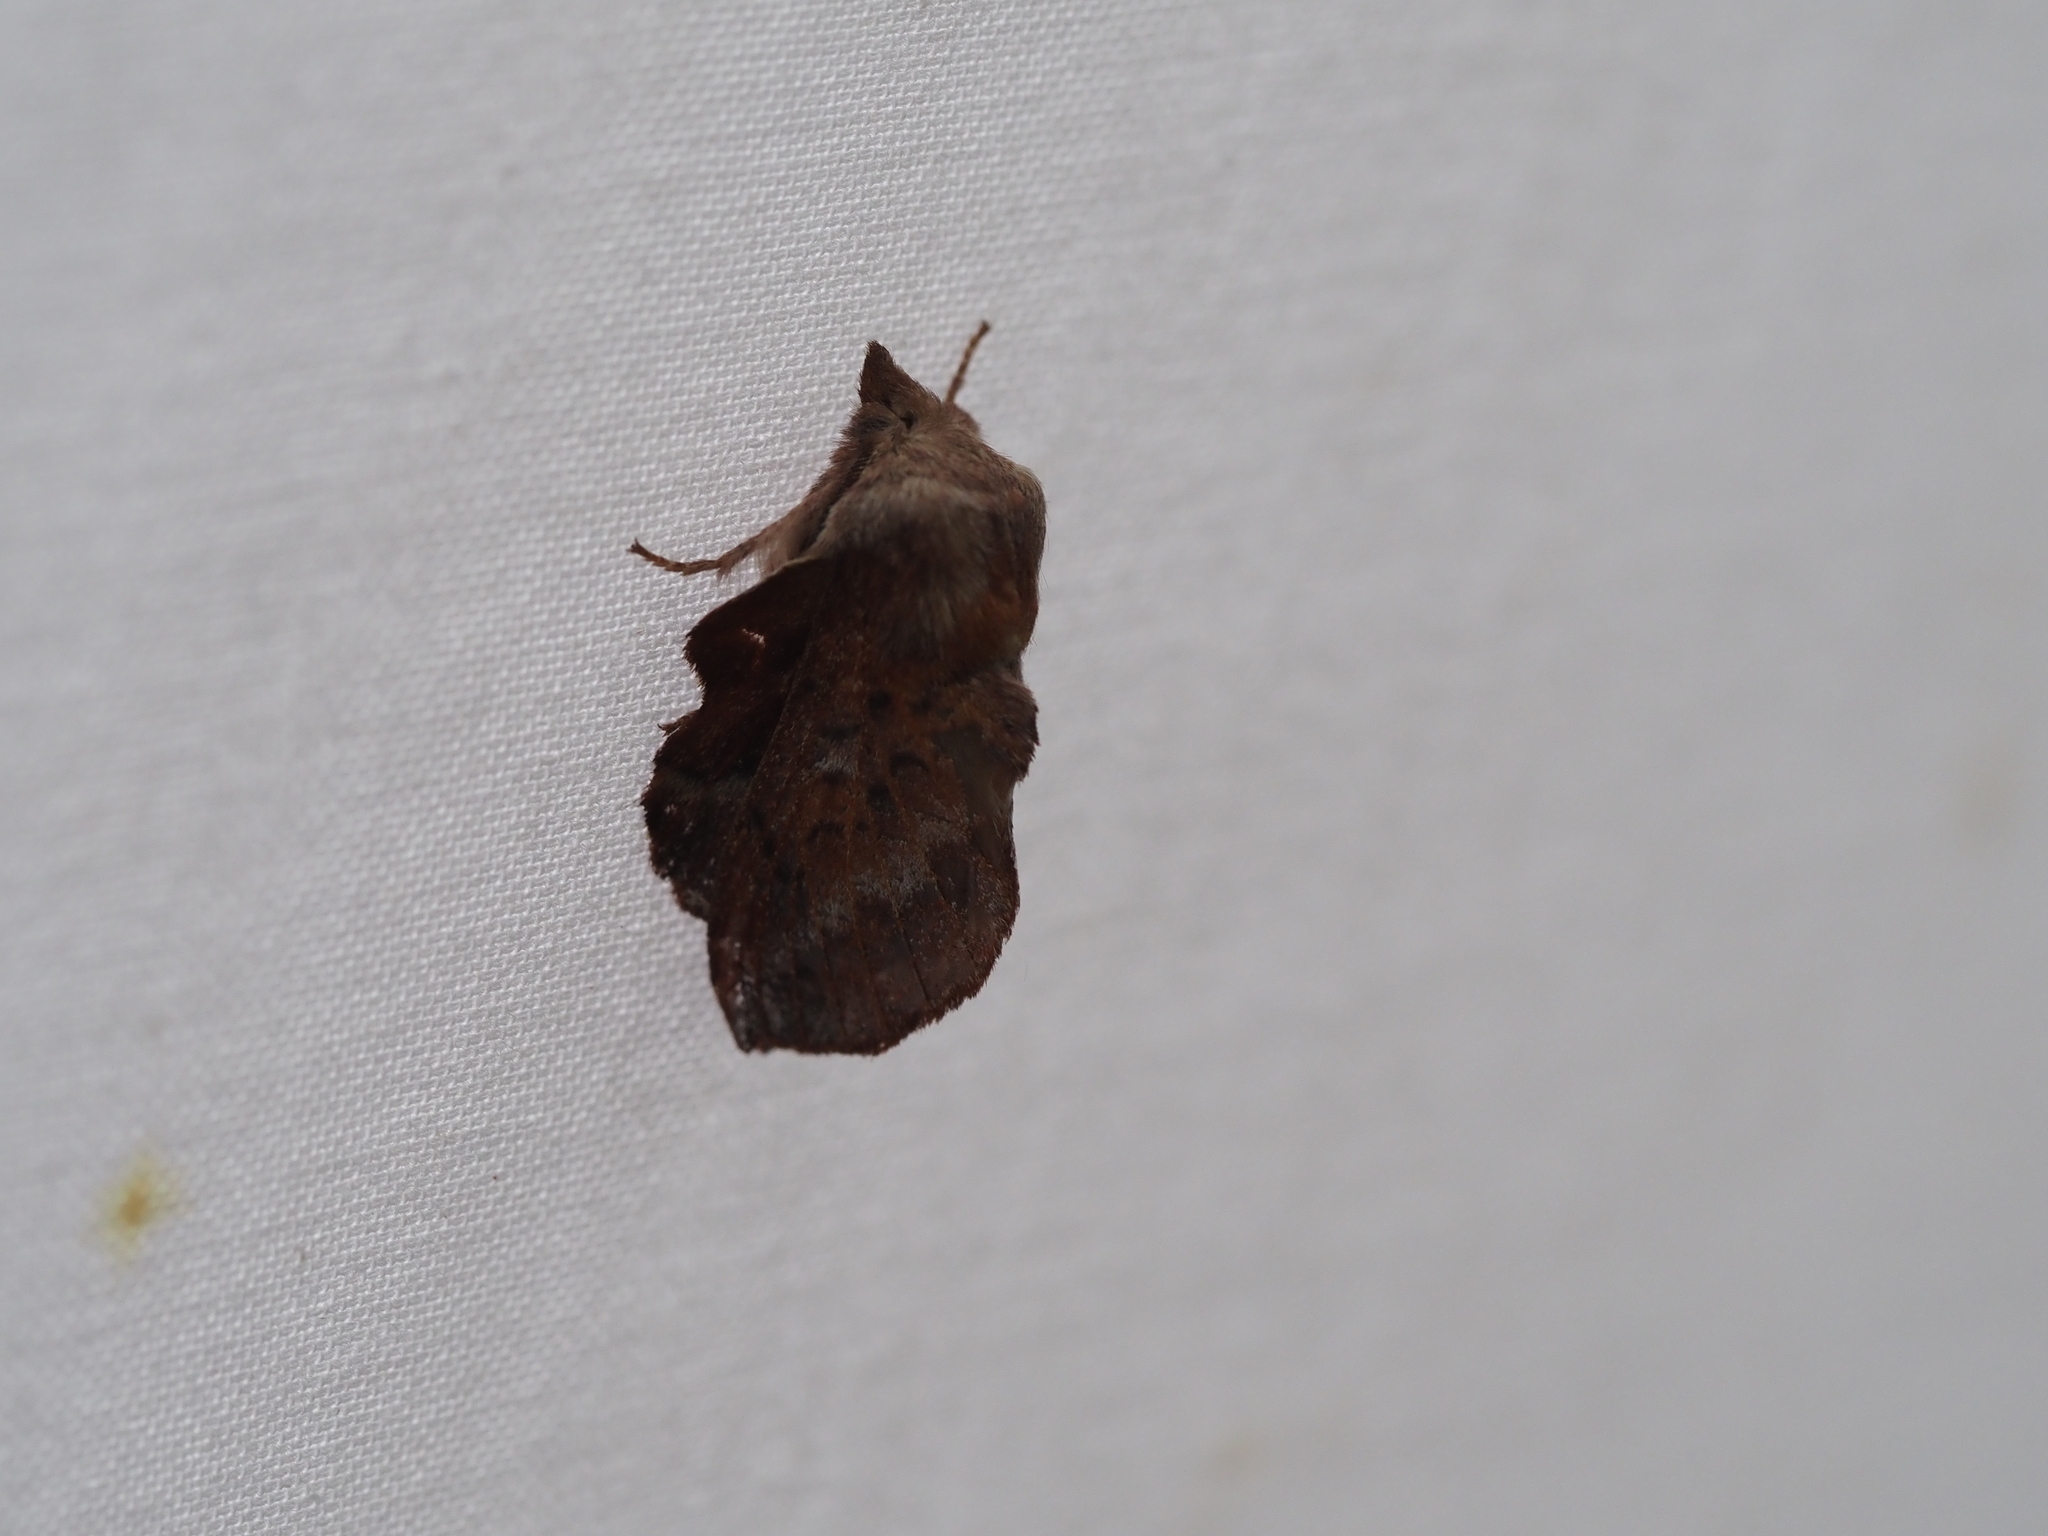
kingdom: Animalia
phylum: Arthropoda
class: Insecta
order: Lepidoptera
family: Lasiocampidae
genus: Phyllodesma
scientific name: Phyllodesma americana
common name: American lappet moth
